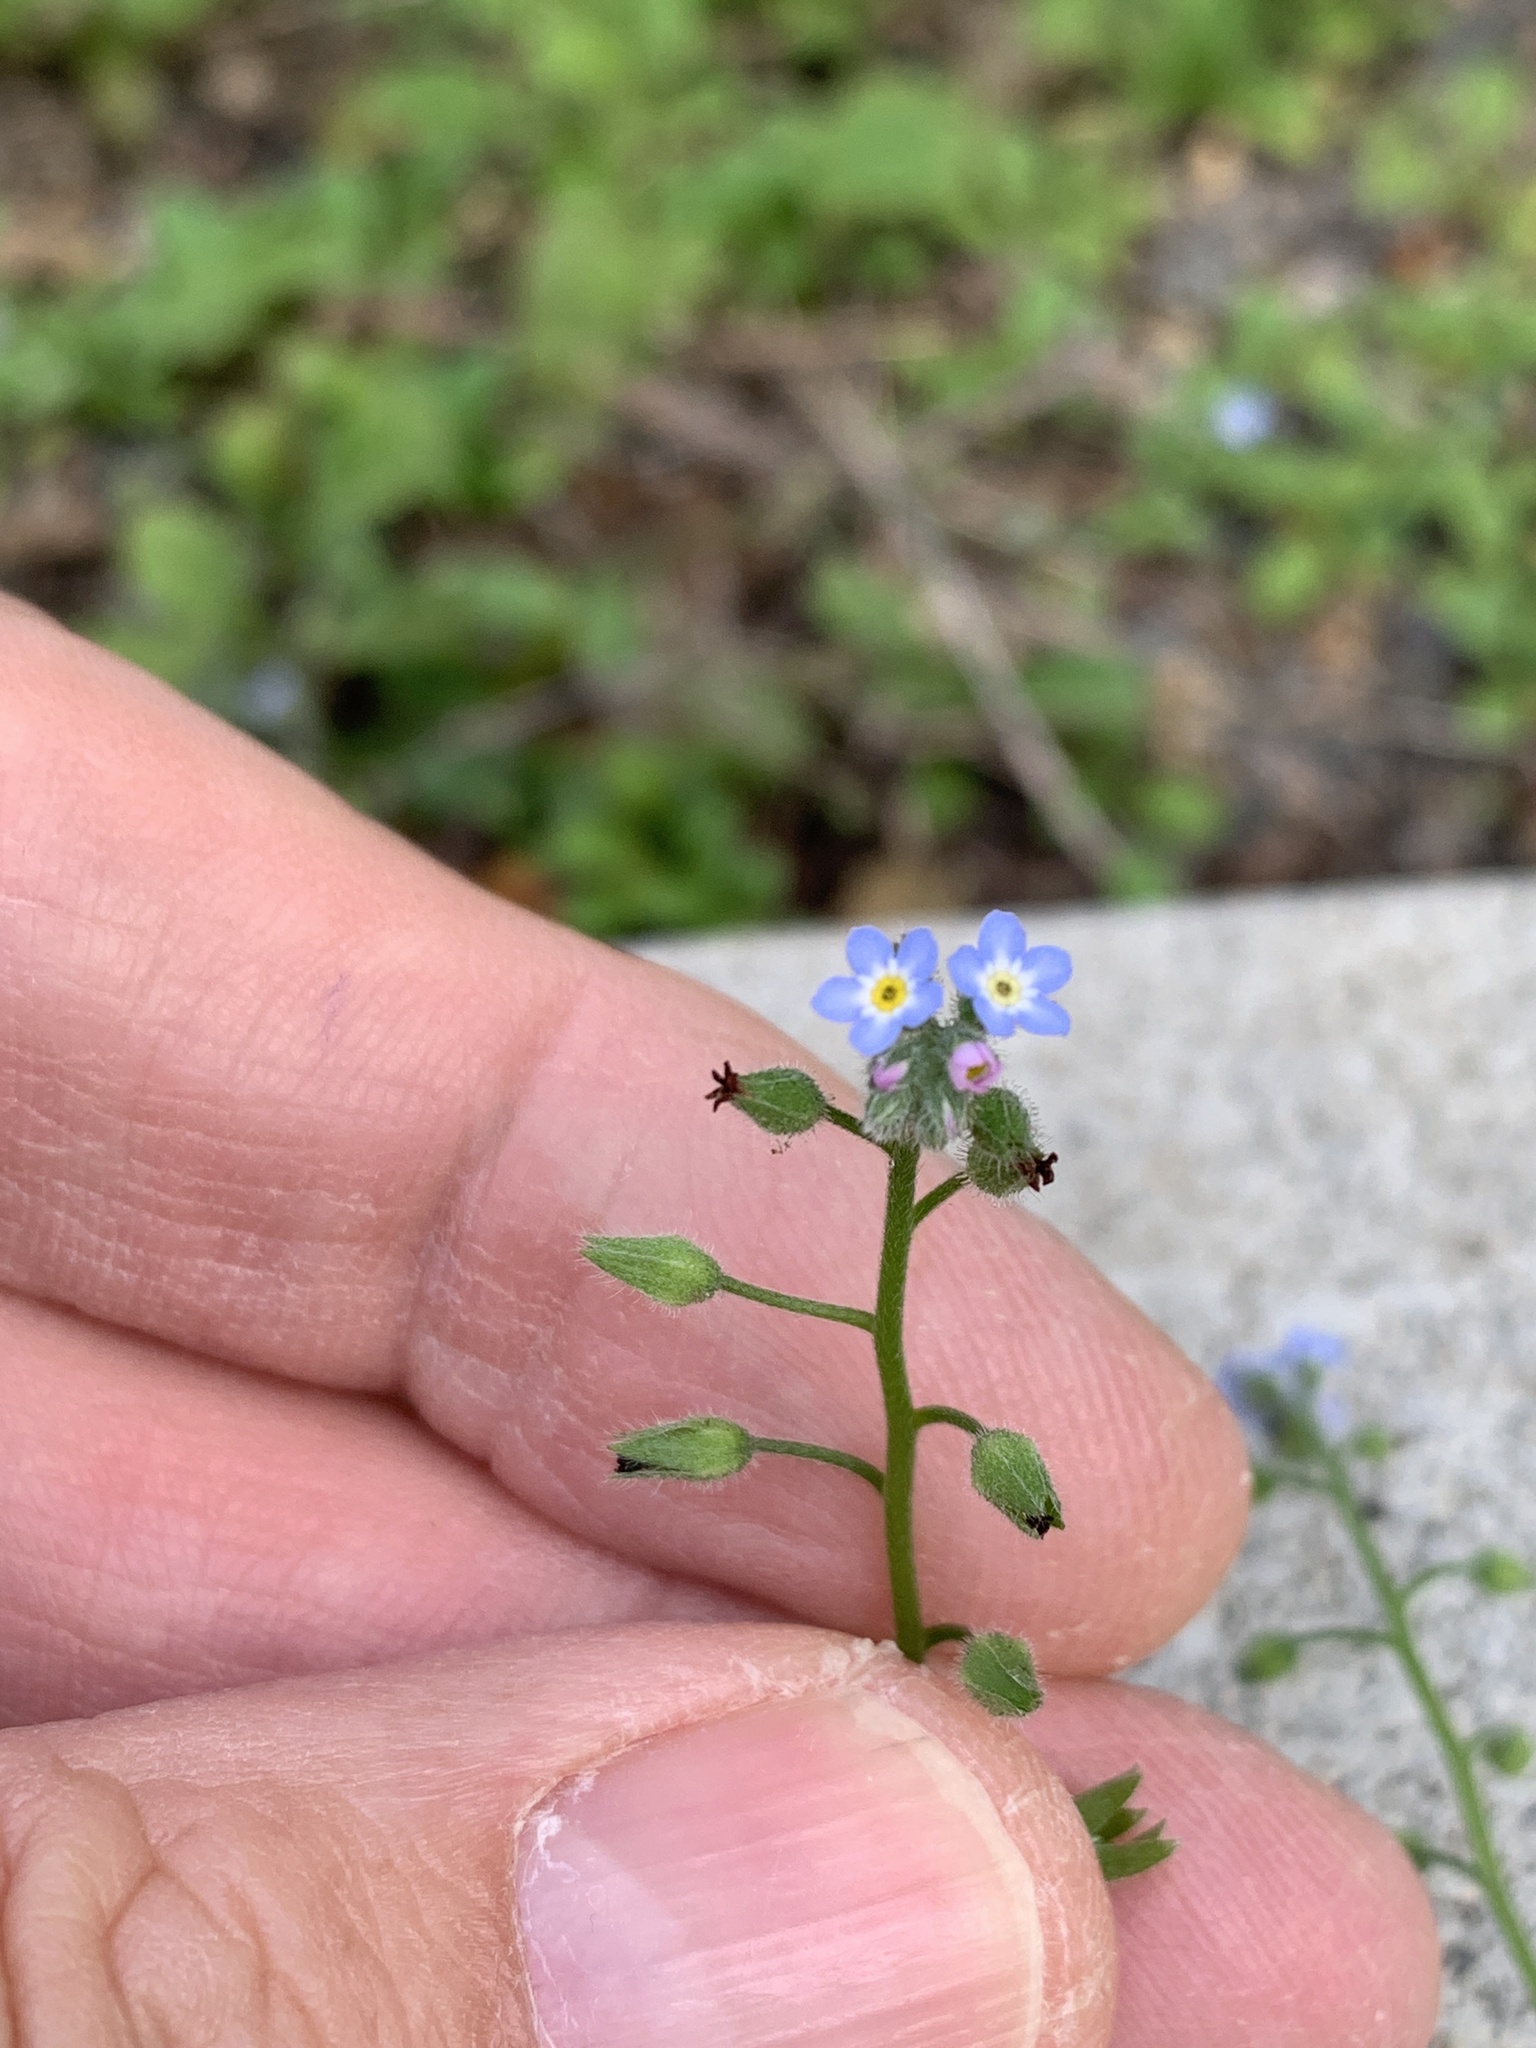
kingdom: Plantae
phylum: Tracheophyta
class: Magnoliopsida
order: Boraginales
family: Boraginaceae
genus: Myosotis
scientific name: Myosotis arvensis
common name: Field forget-me-not
